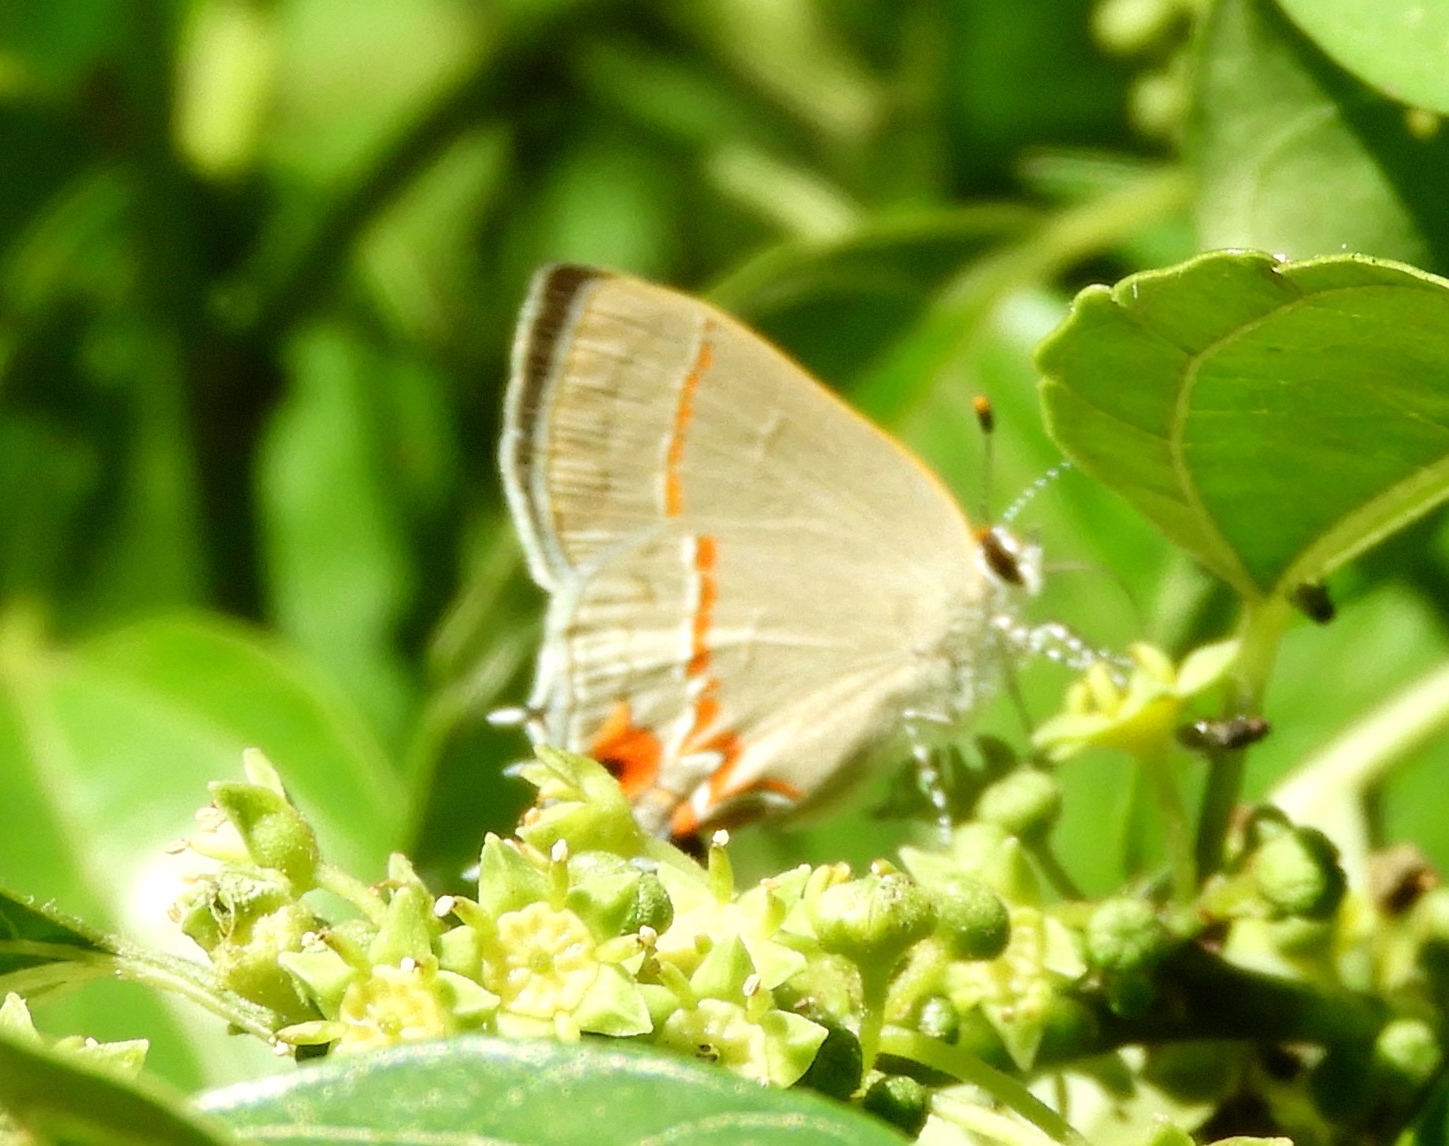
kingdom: Animalia
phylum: Arthropoda
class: Insecta
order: Lepidoptera
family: Lycaenidae
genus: Electrostrymon
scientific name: Electrostrymon endymion
